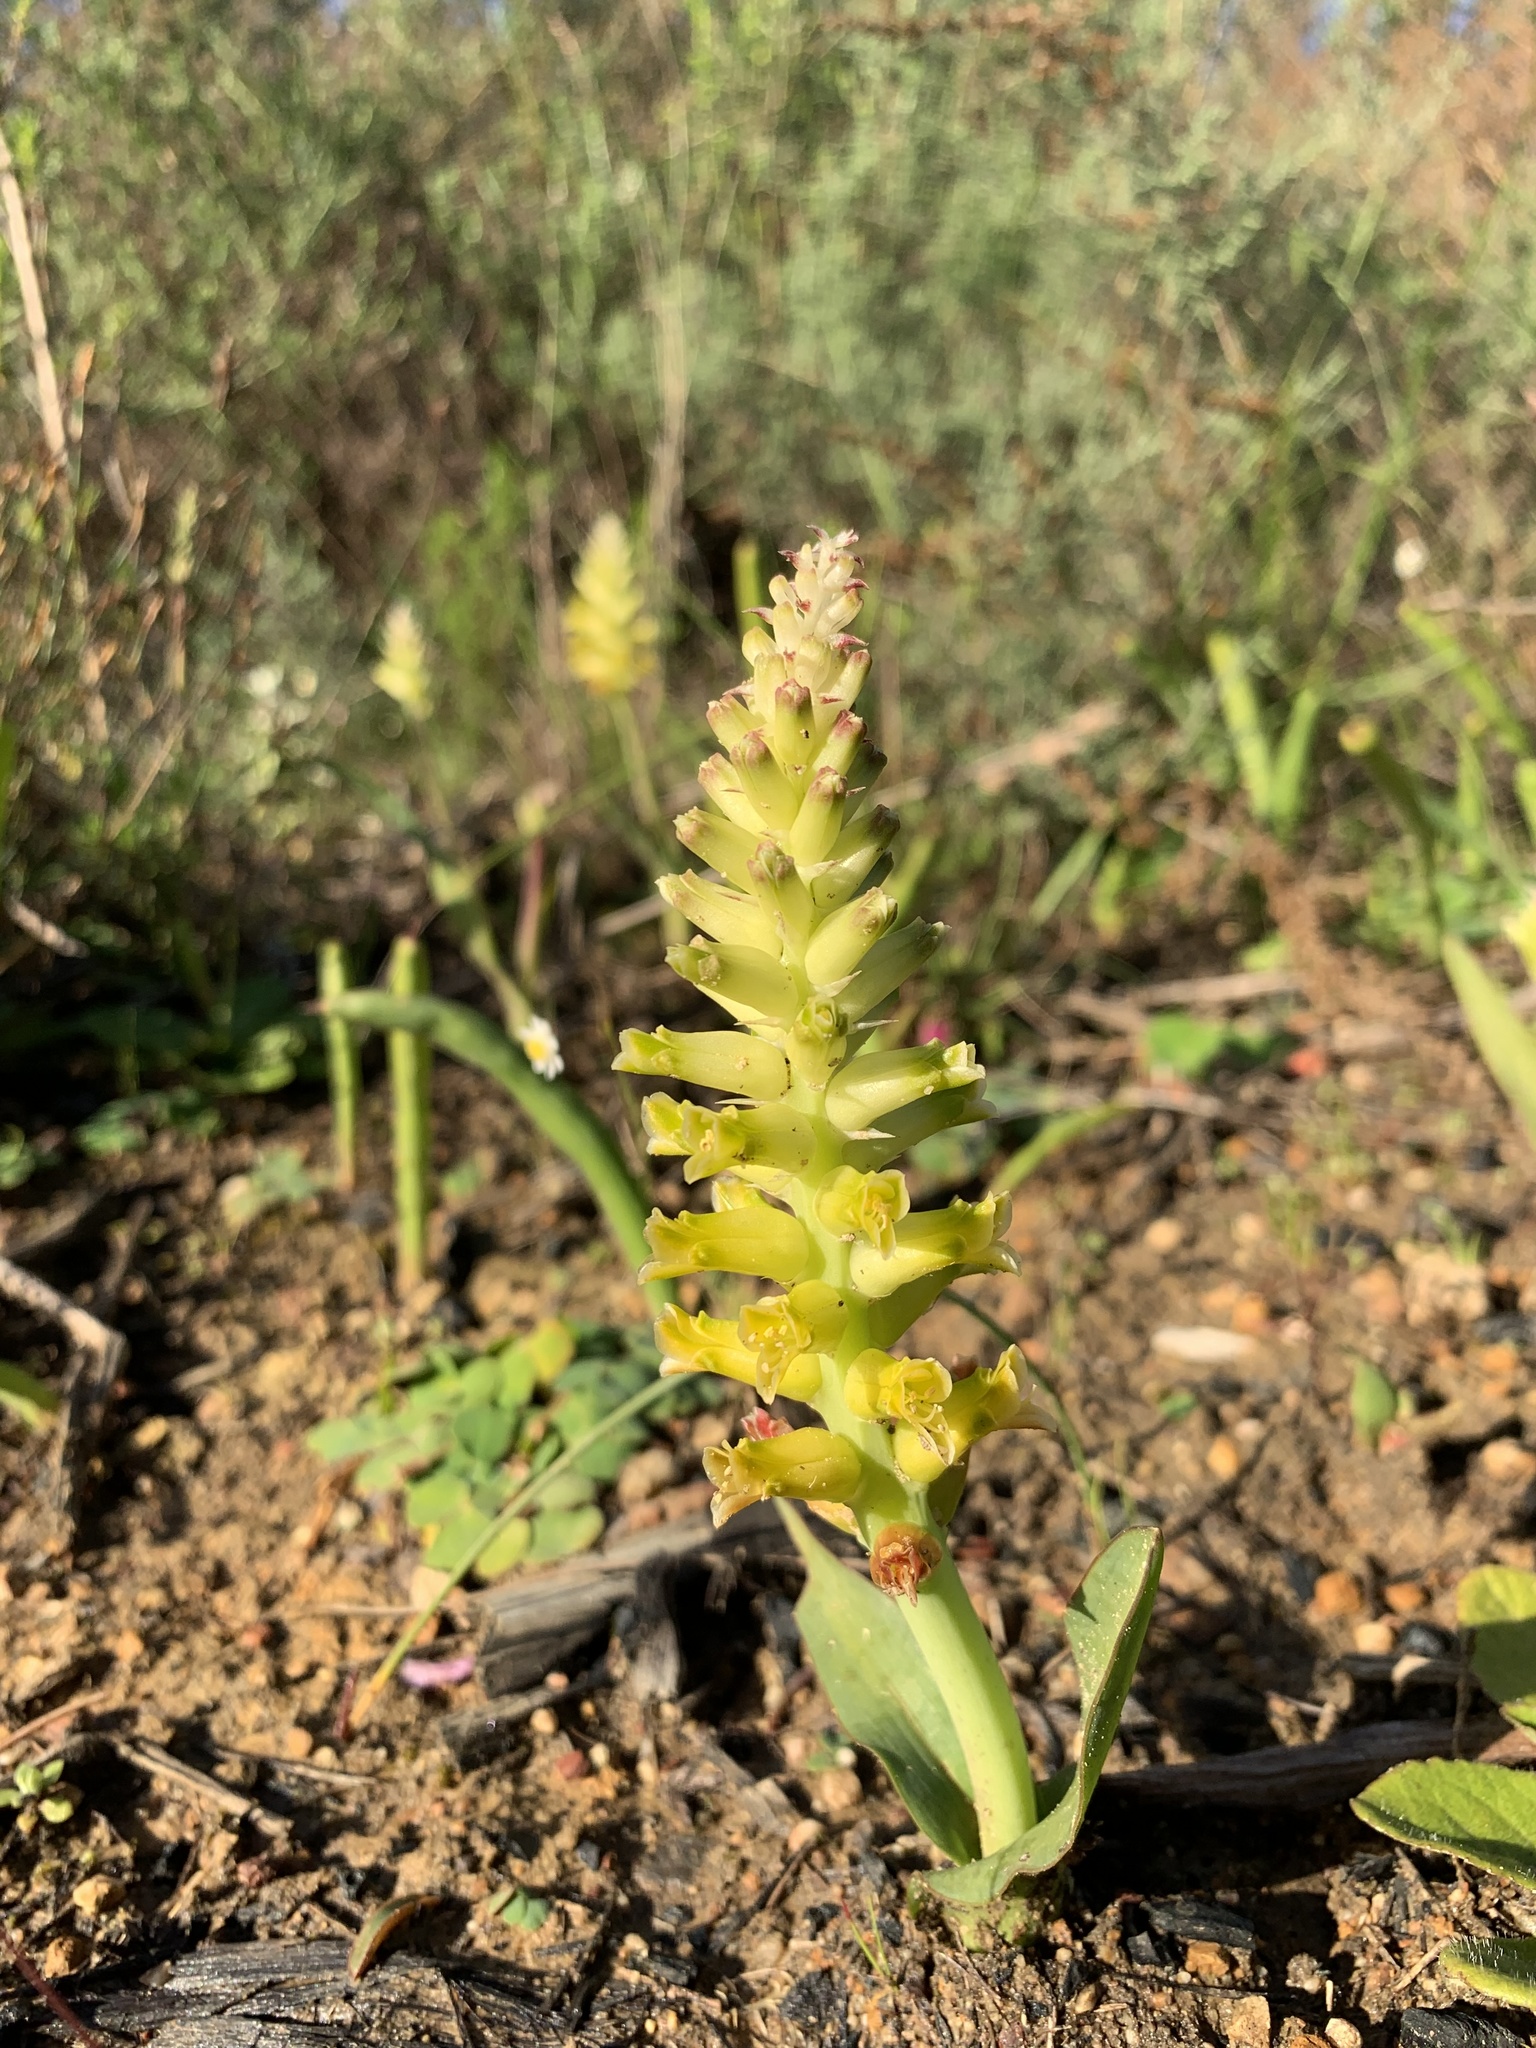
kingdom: Plantae
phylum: Tracheophyta
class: Liliopsida
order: Asparagales
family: Asparagaceae
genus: Lachenalia
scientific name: Lachenalia lutea
